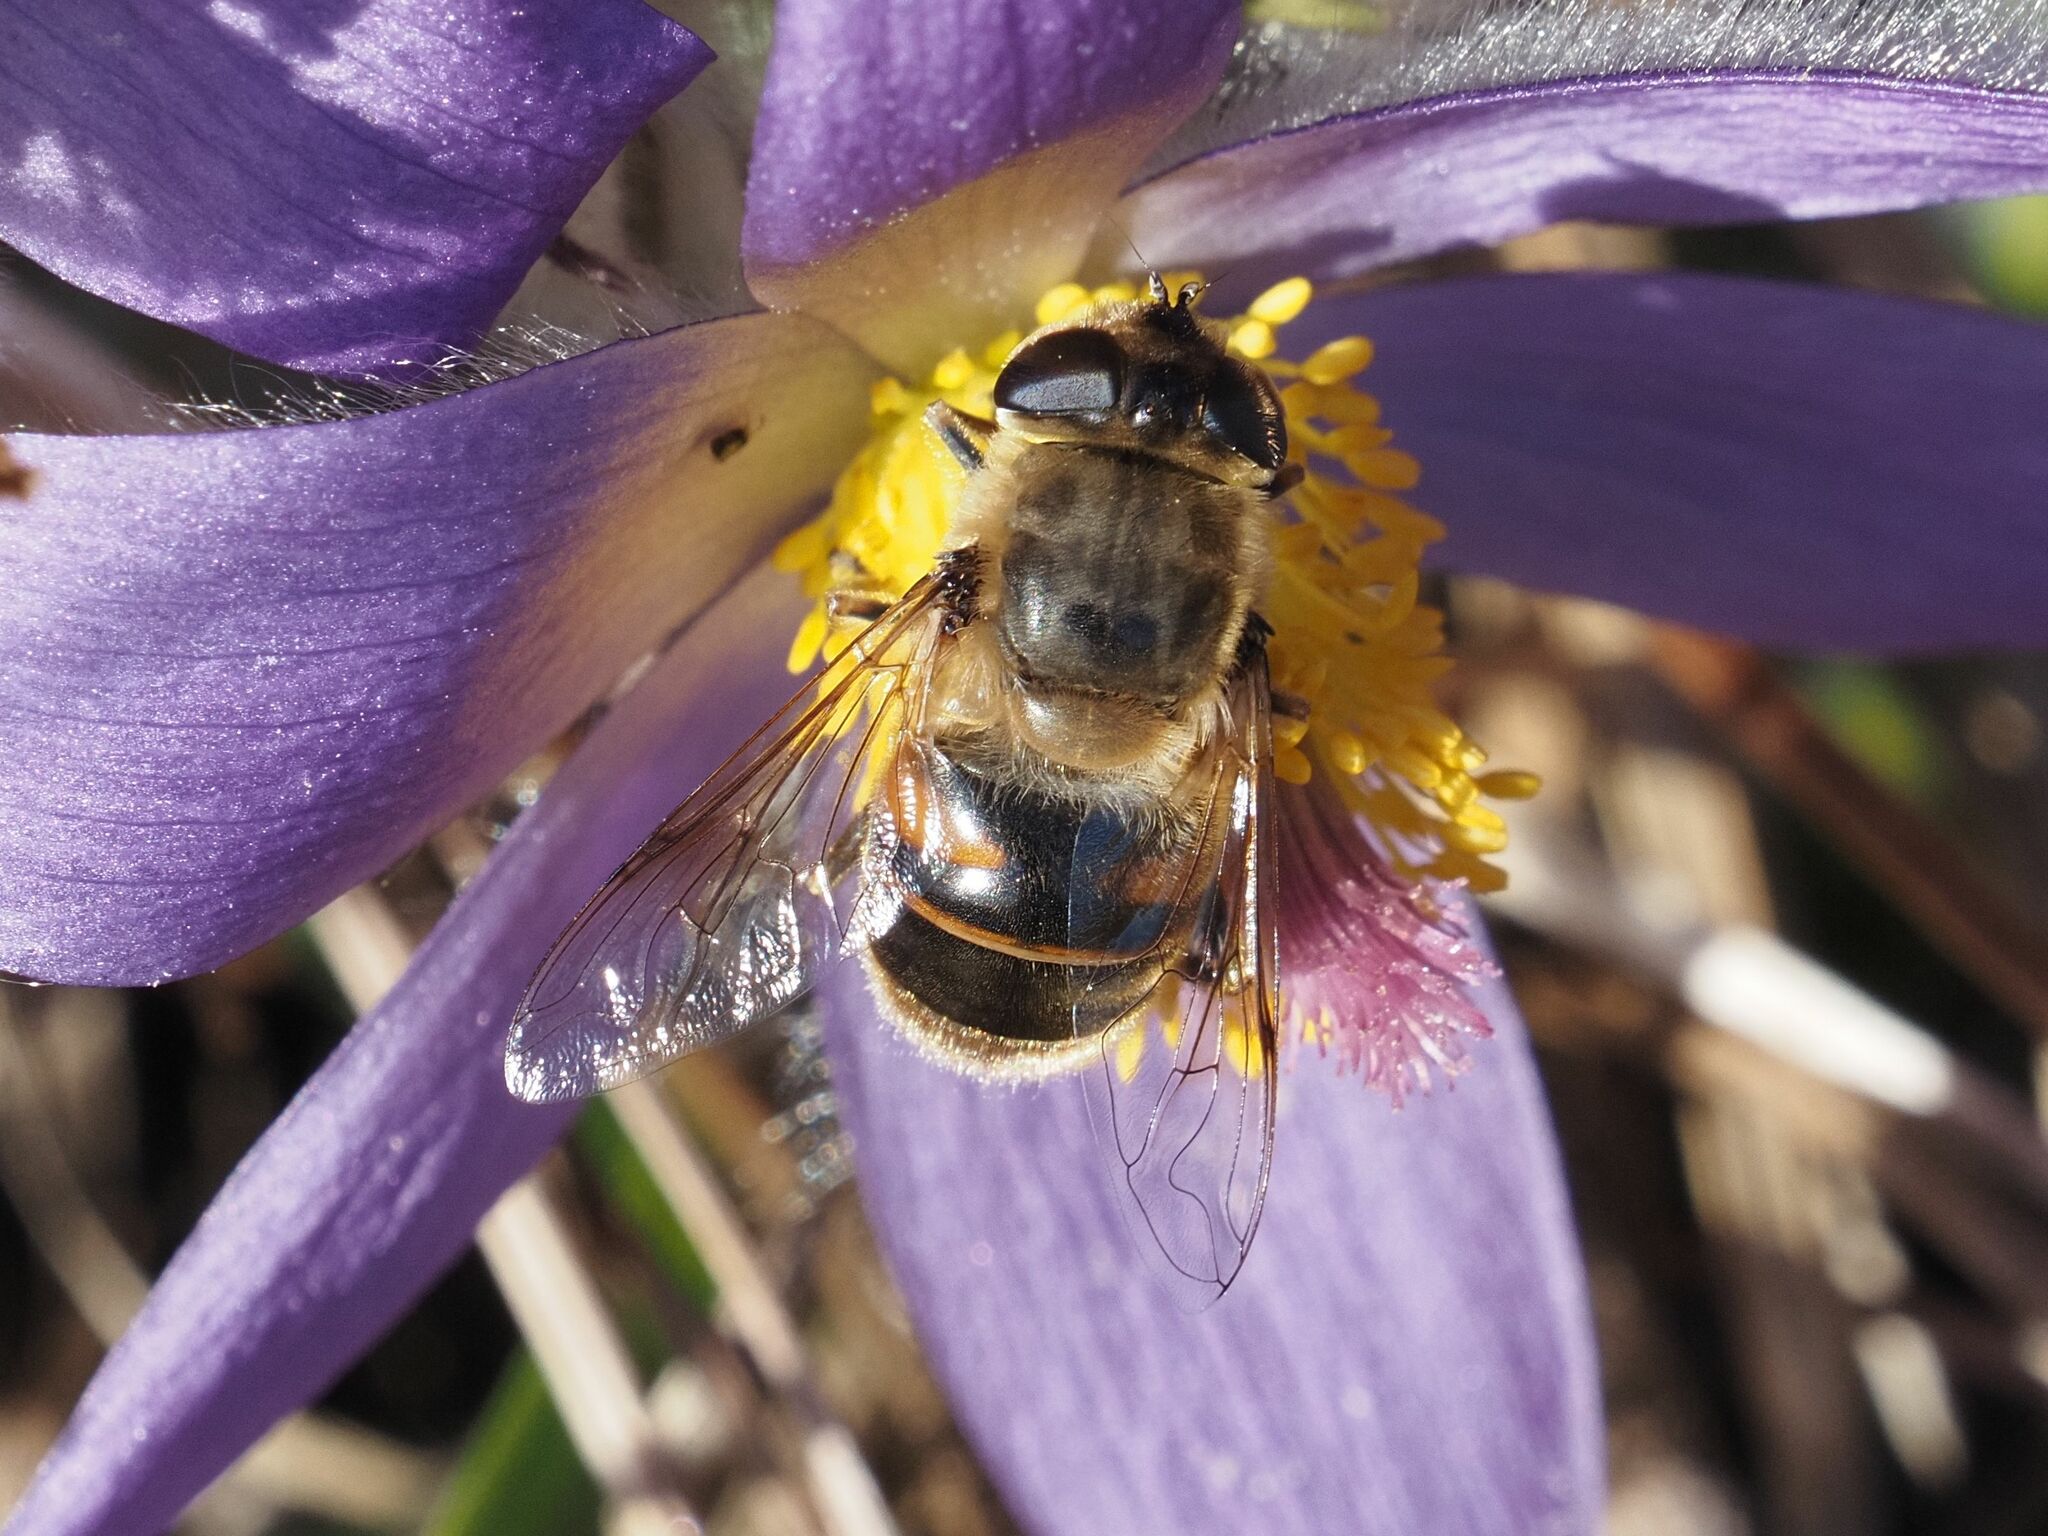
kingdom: Animalia
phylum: Arthropoda
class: Insecta
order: Diptera
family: Syrphidae
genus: Eristalis
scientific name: Eristalis tenax
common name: Drone fly
